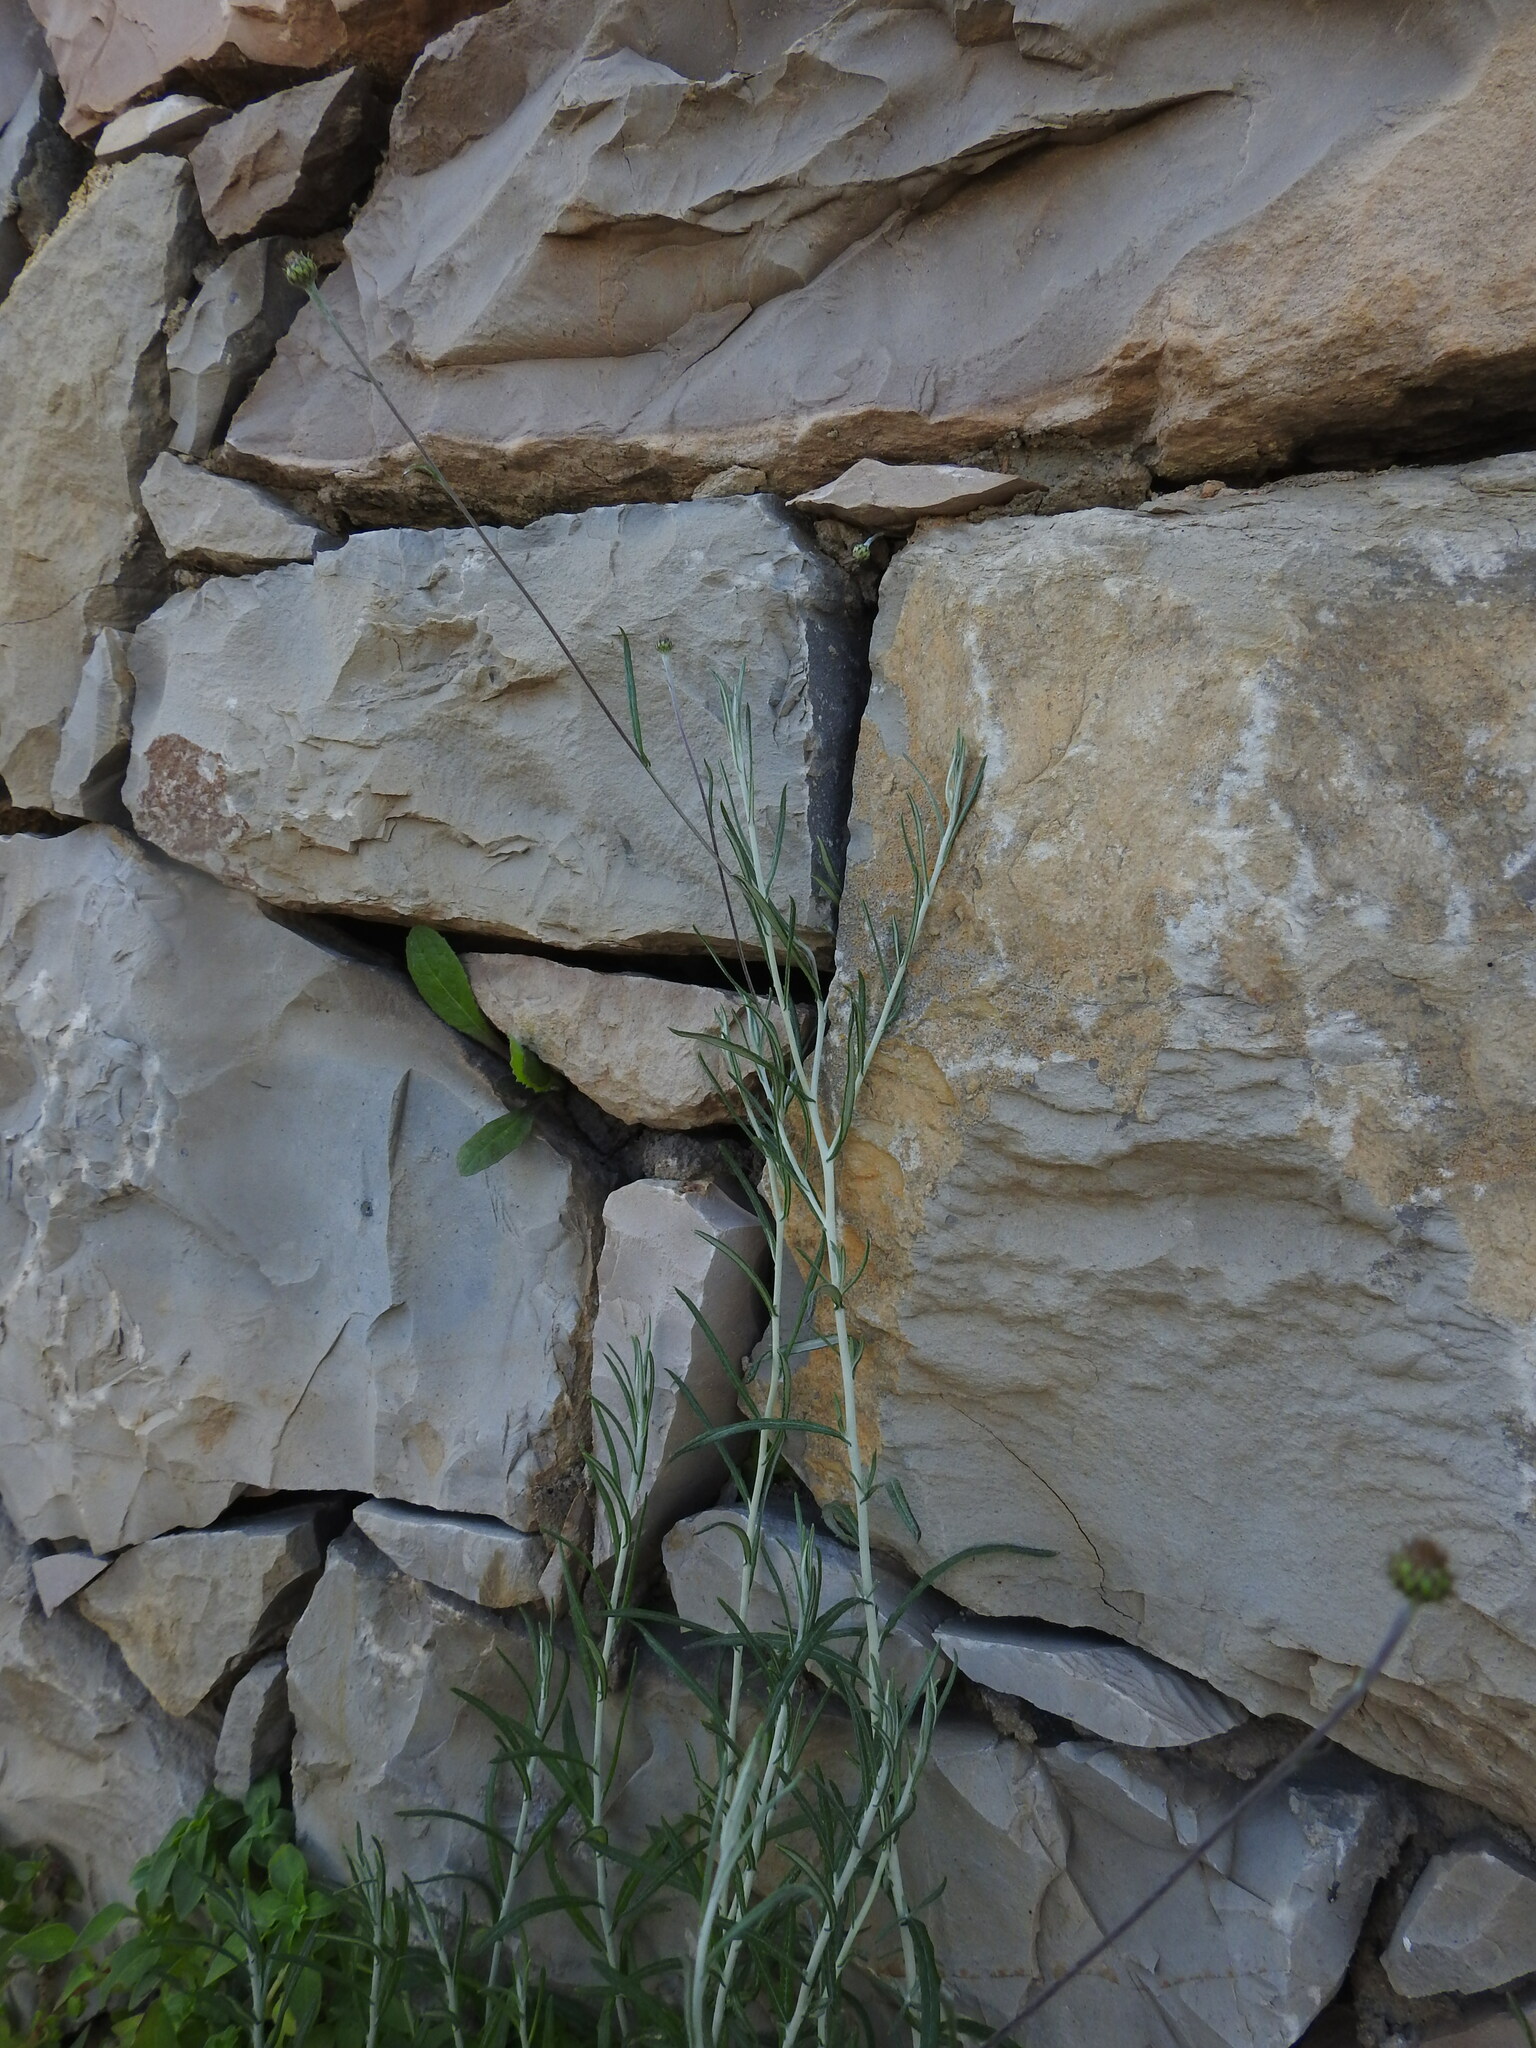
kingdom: Plantae
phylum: Tracheophyta
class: Magnoliopsida
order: Asterales
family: Asteraceae
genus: Phagnalon
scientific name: Phagnalon saxatile
